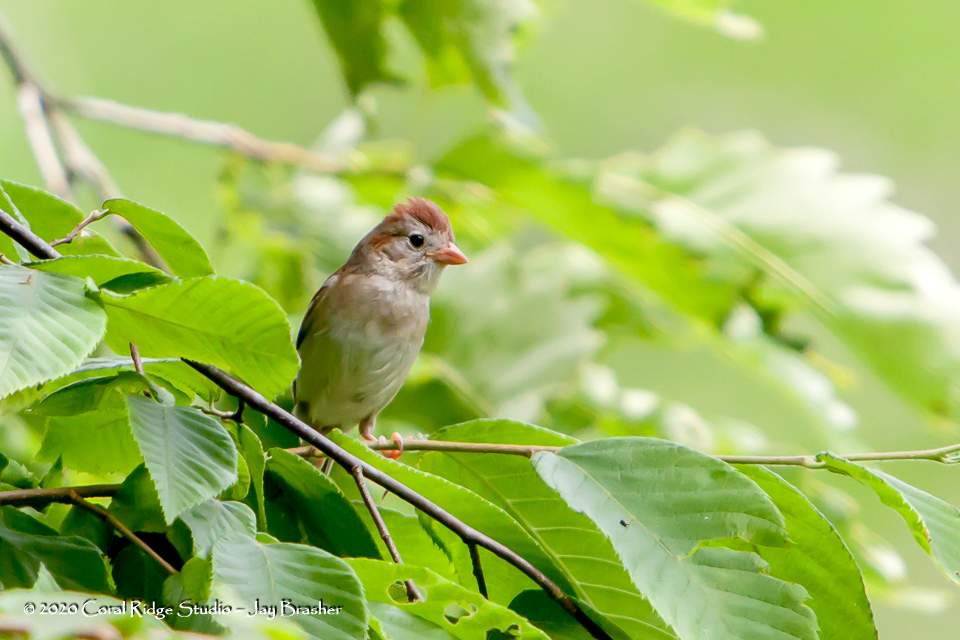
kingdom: Animalia
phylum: Chordata
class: Aves
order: Passeriformes
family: Passerellidae
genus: Spizella
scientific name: Spizella pusilla
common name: Field sparrow
